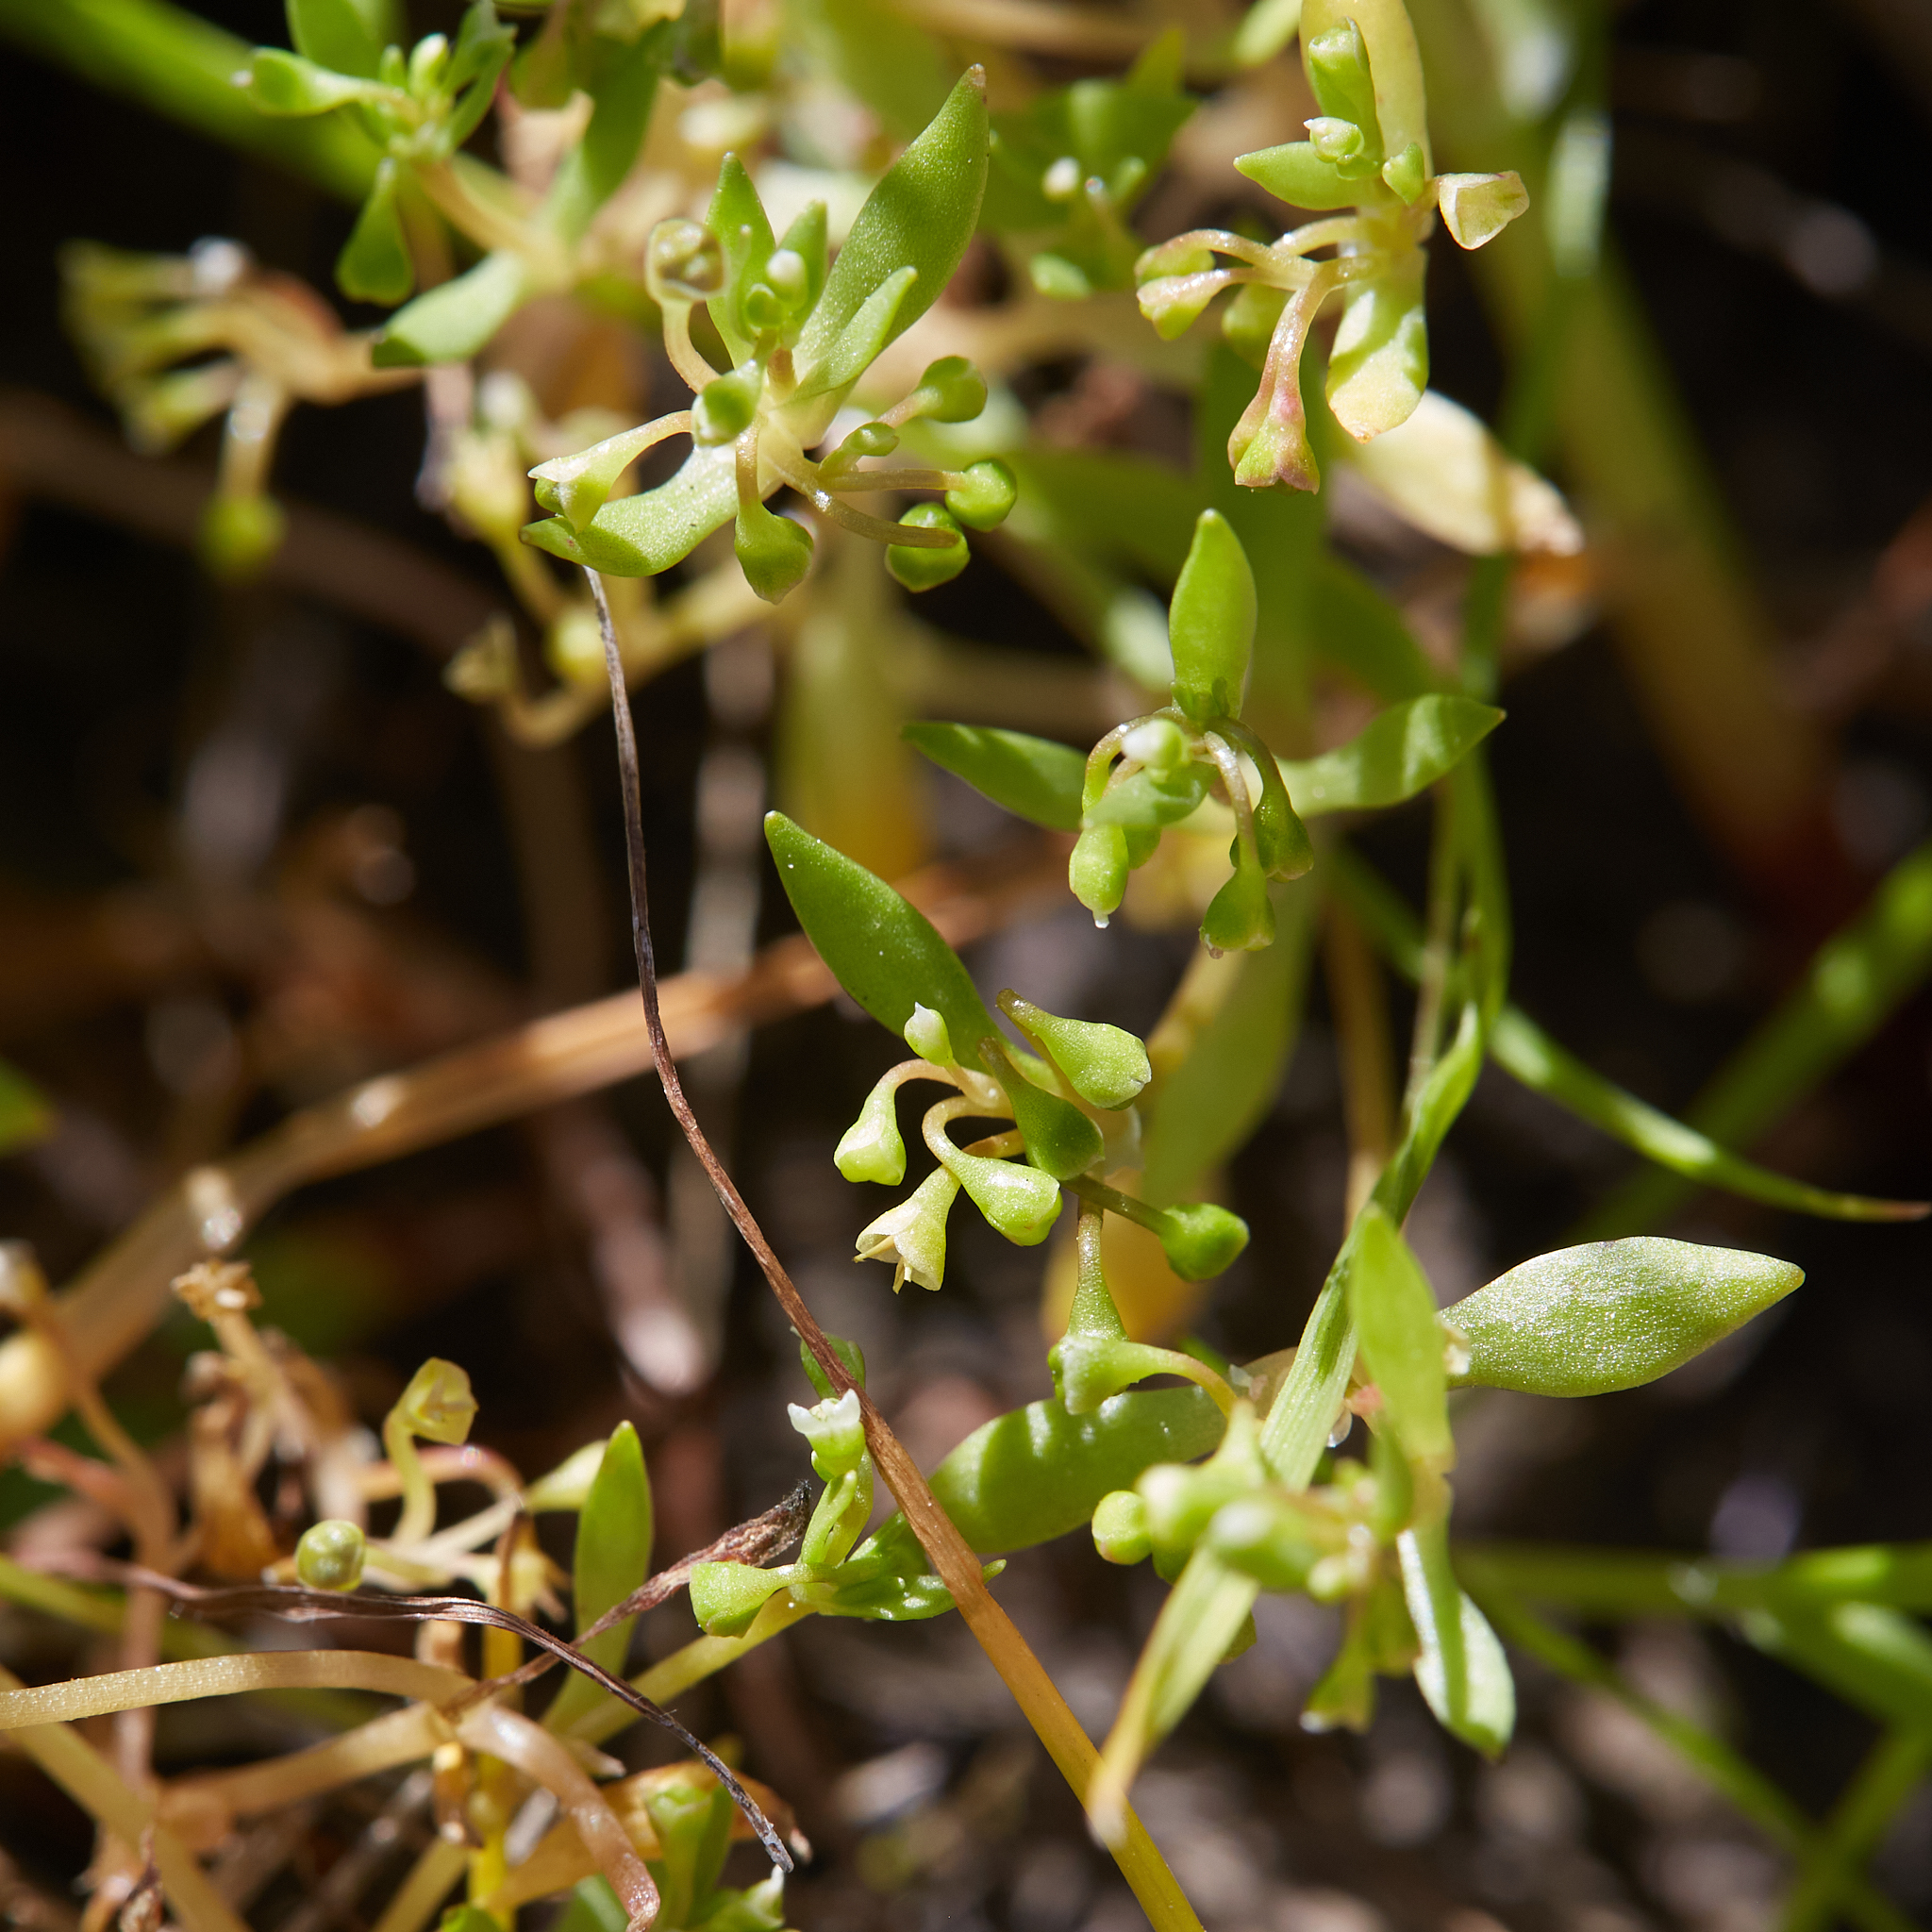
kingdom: Plantae
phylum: Tracheophyta
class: Magnoliopsida
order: Caryophyllales
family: Montiaceae
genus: Montia
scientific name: Montia fontana
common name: Blinks
